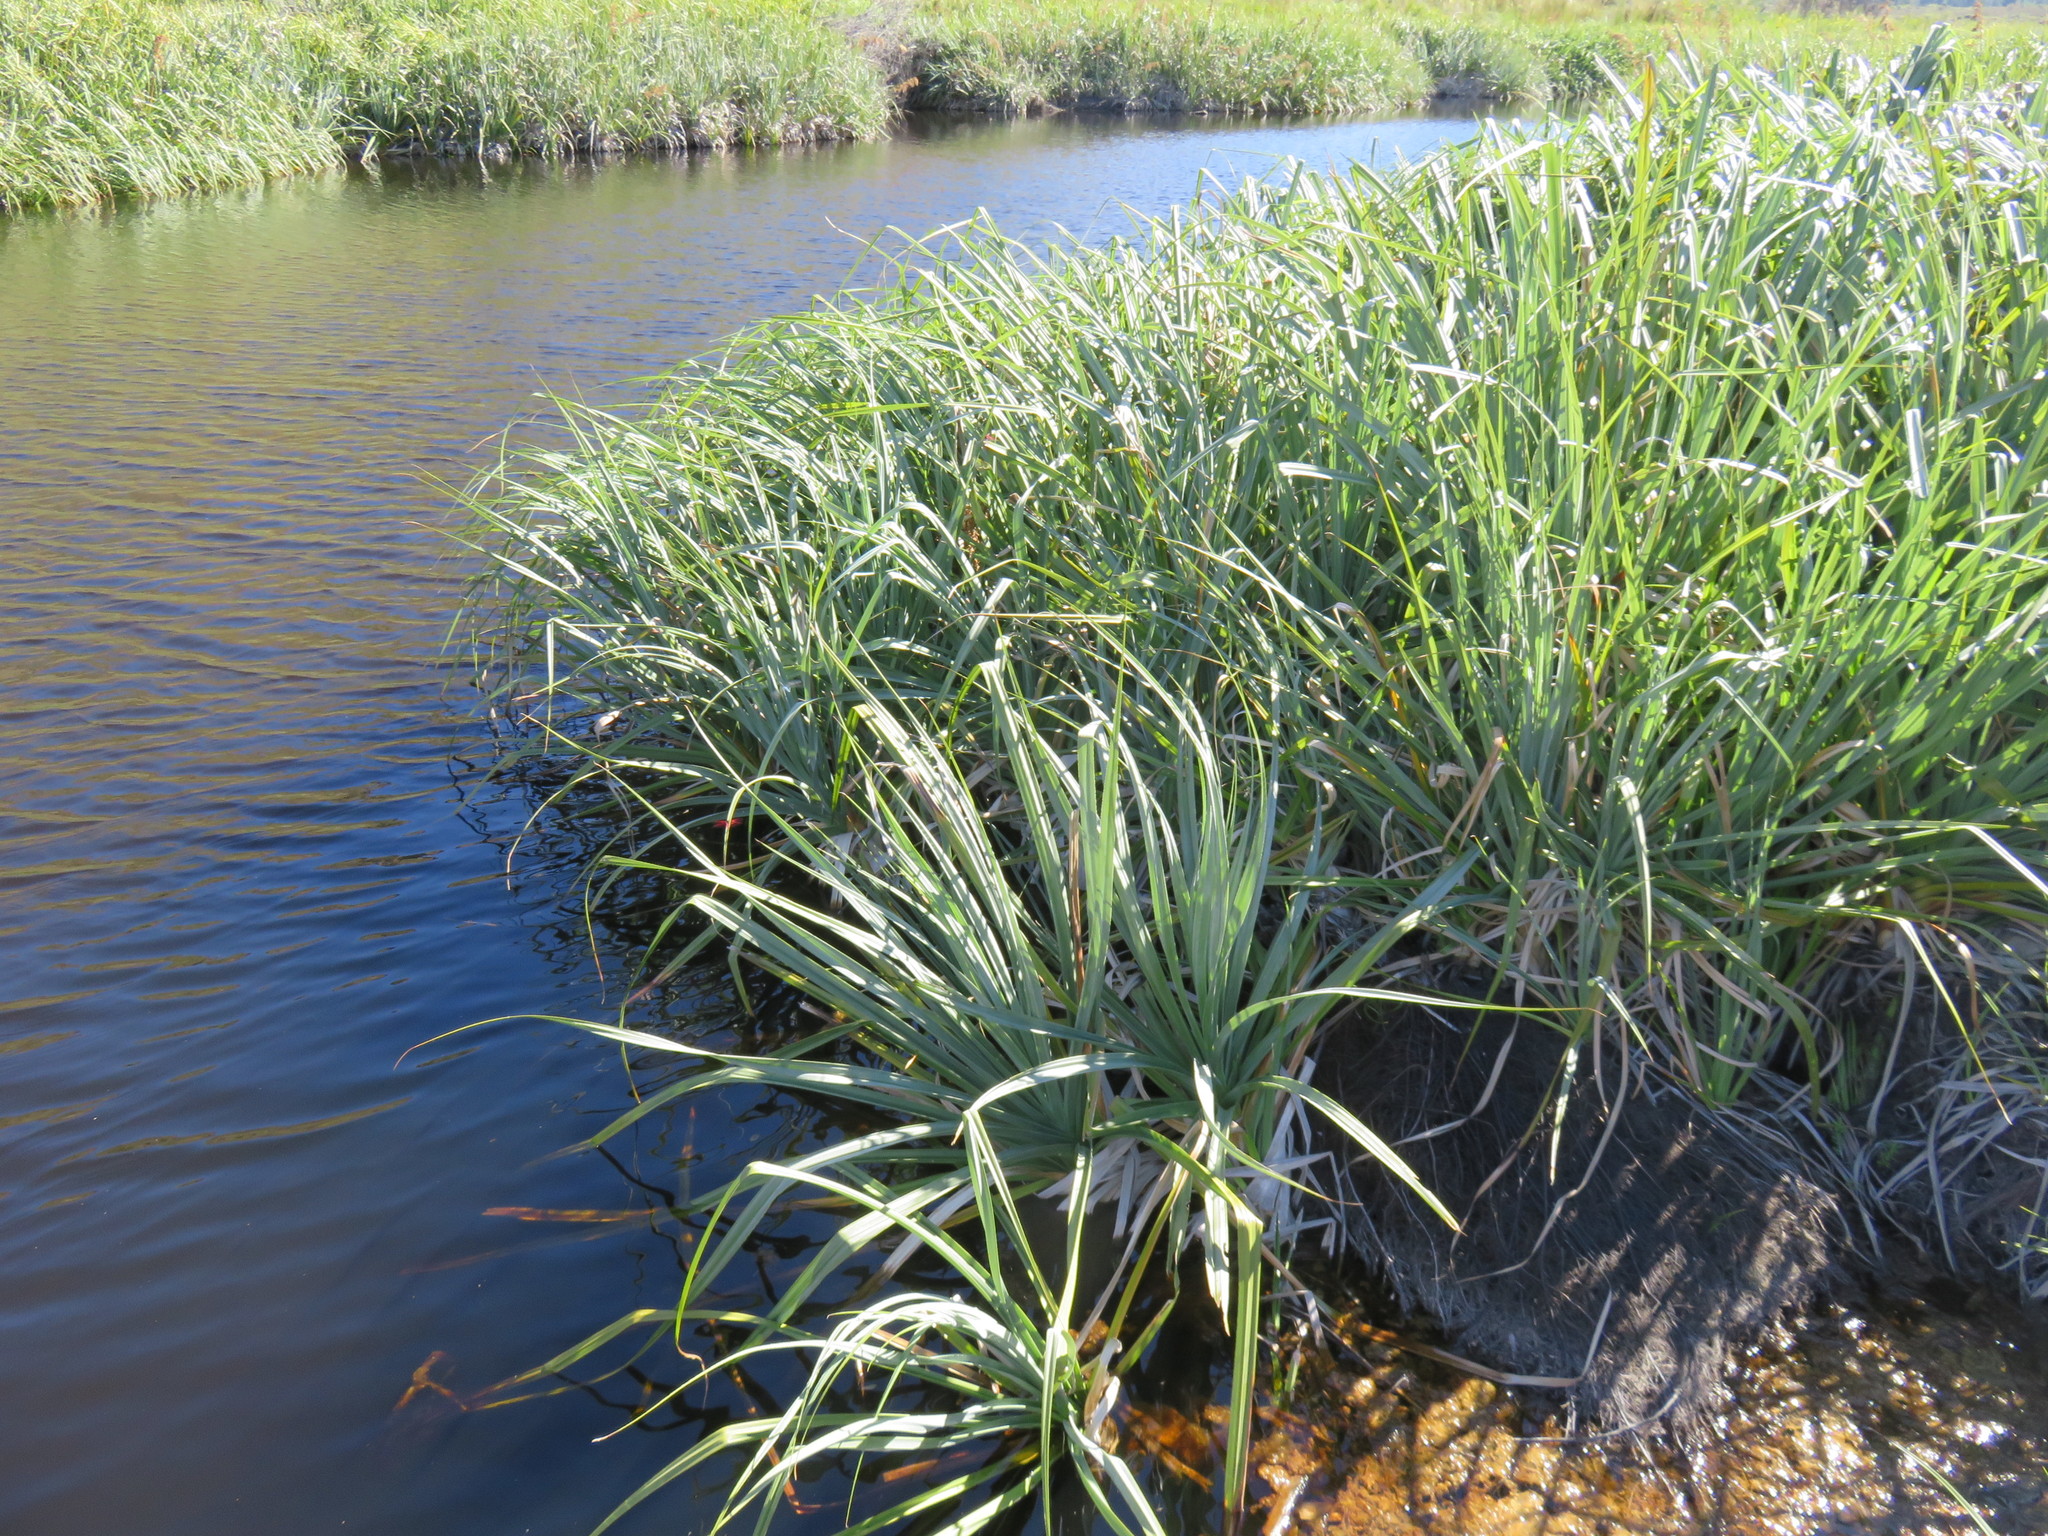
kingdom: Plantae
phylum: Tracheophyta
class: Liliopsida
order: Poales
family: Thurniaceae
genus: Prionium
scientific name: Prionium serratum
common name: Palmiet
